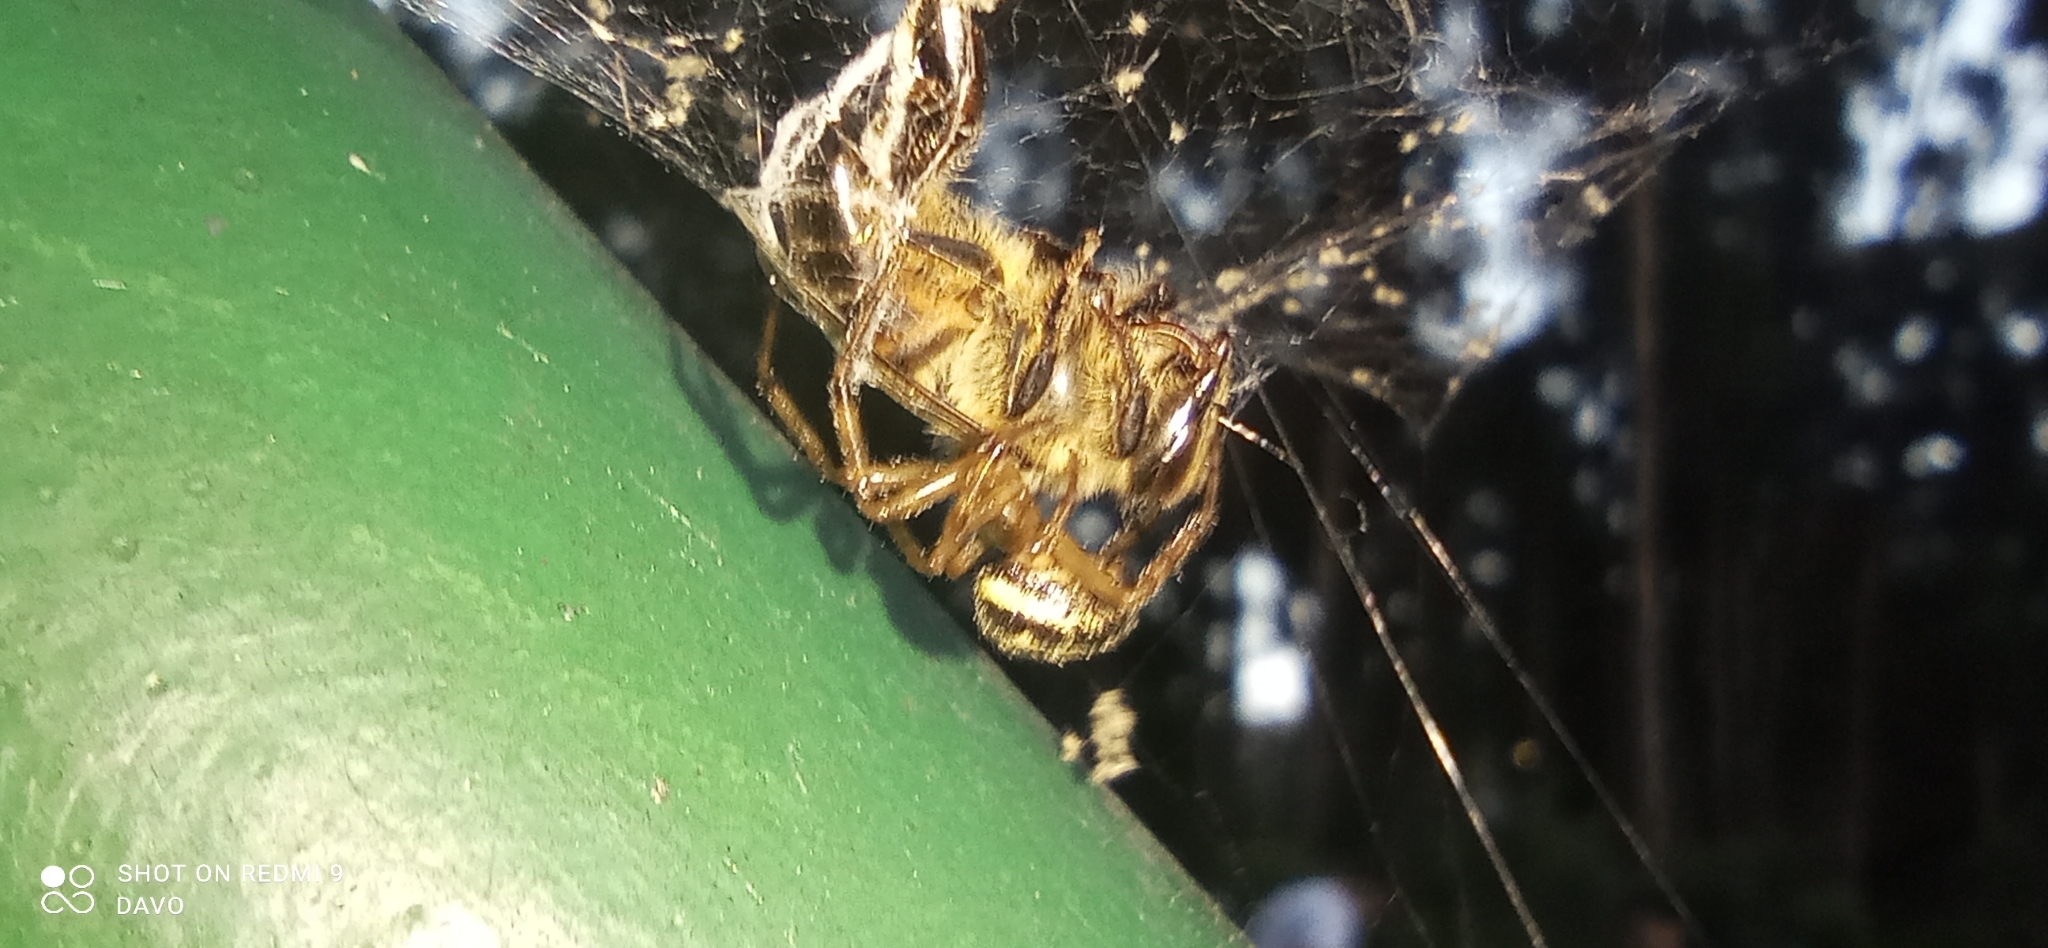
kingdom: Animalia
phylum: Arthropoda
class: Arachnida
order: Araneae
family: Theridiidae
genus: Steatoda
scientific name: Steatoda nobilis
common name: Cobweb weaver
